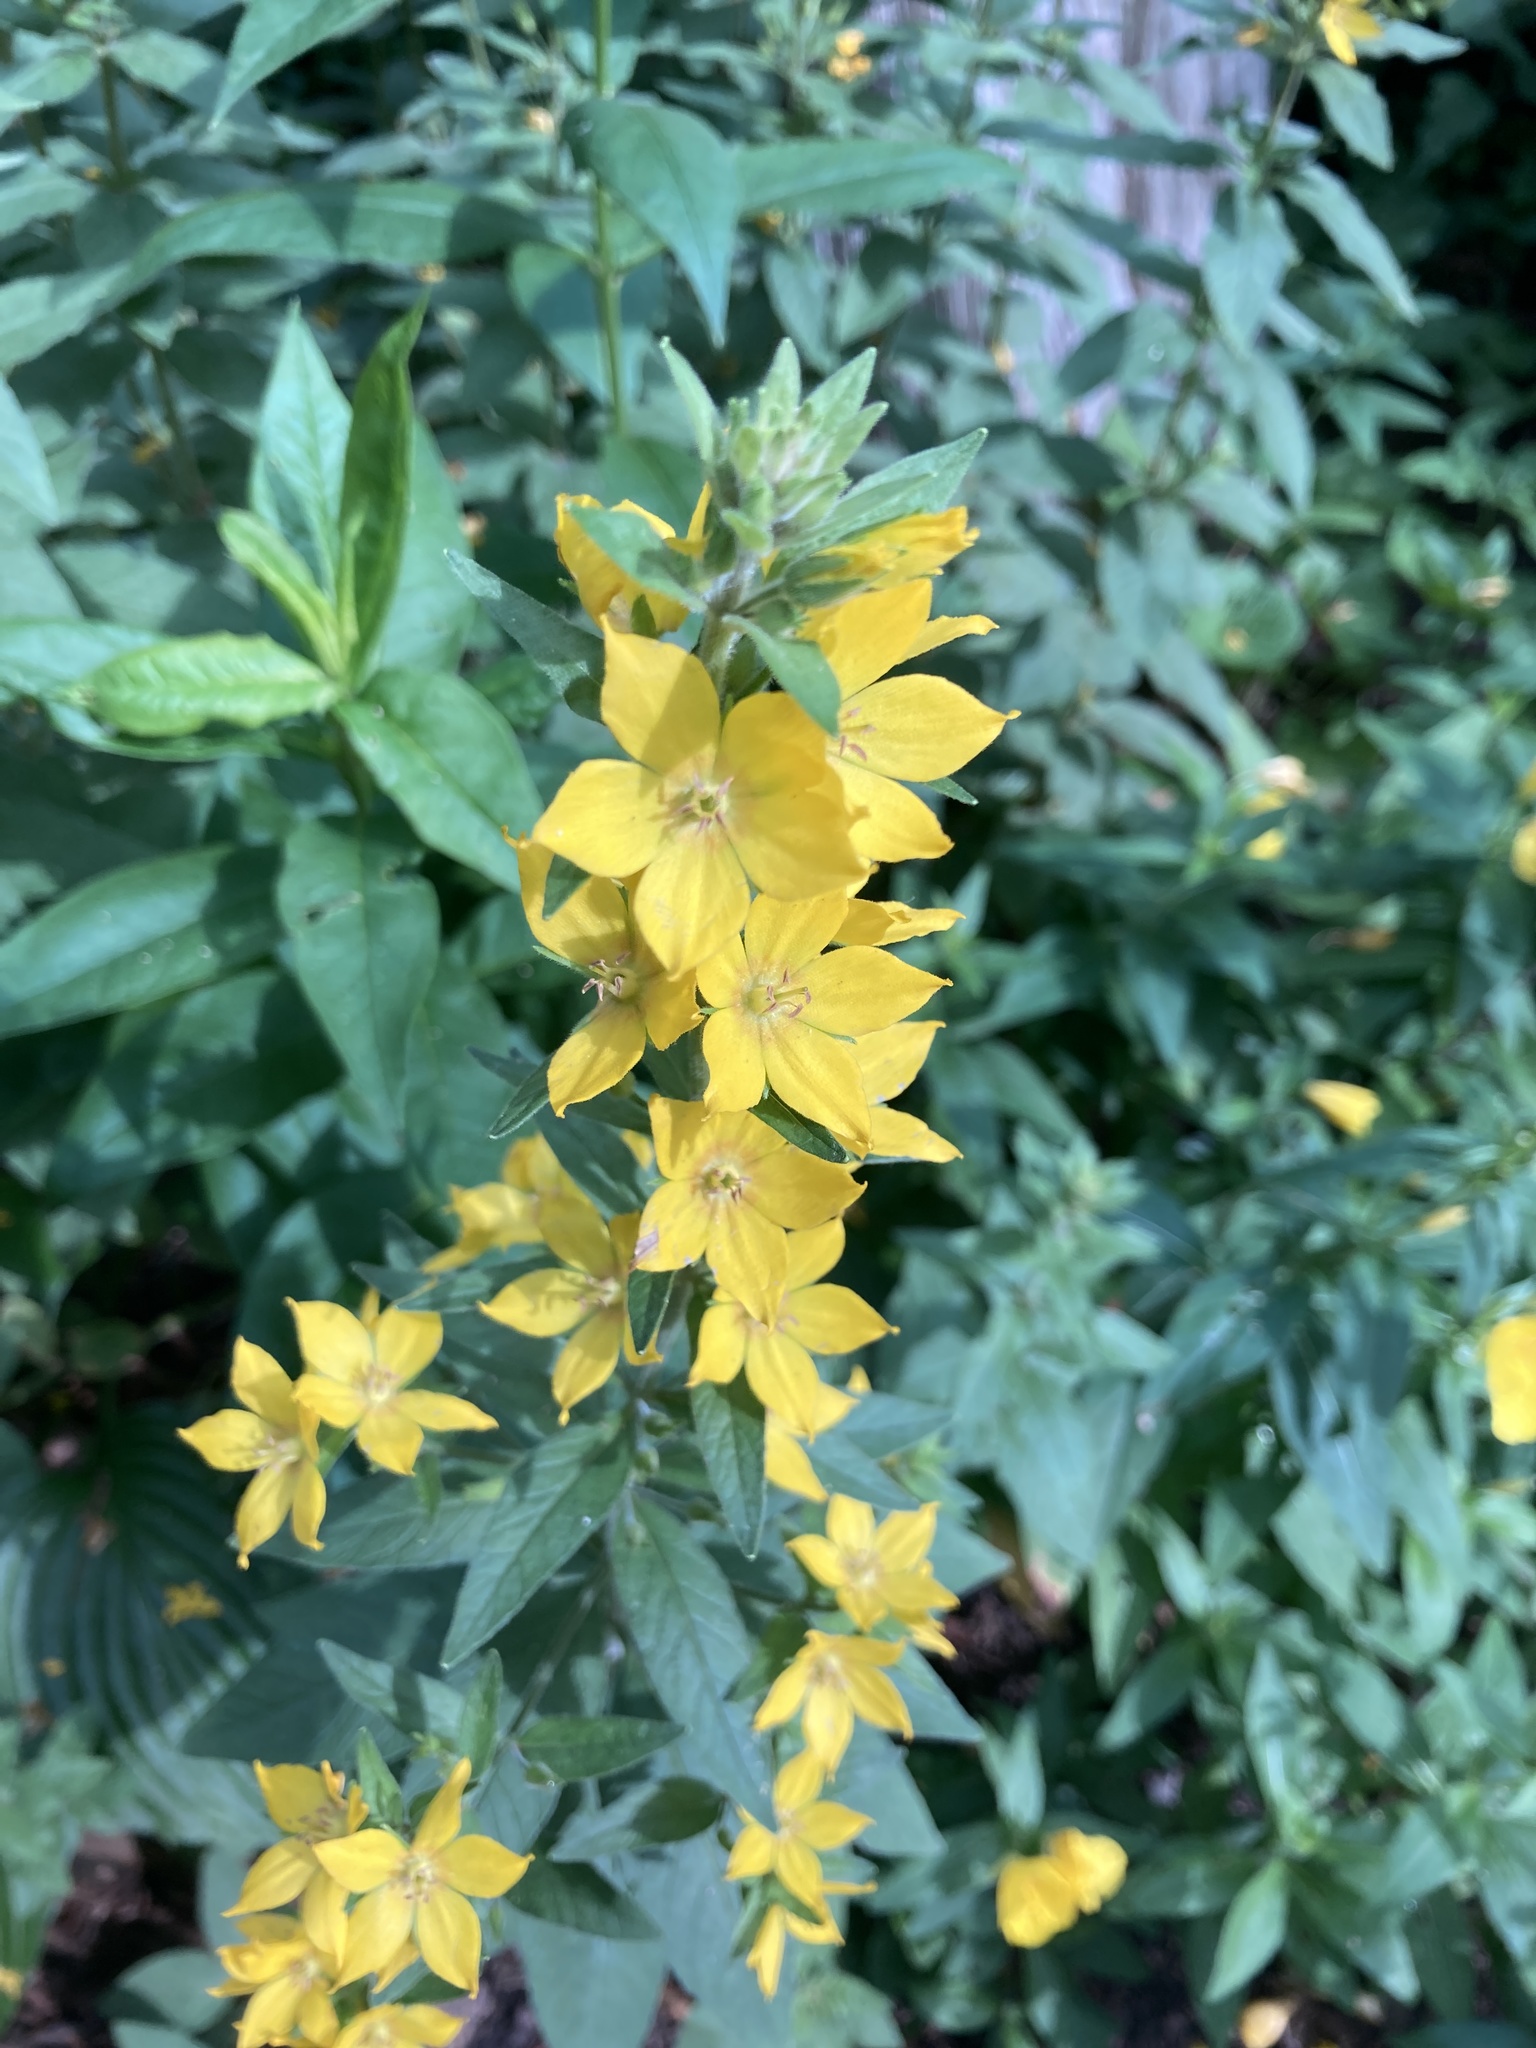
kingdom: Plantae
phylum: Tracheophyta
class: Magnoliopsida
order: Ericales
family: Primulaceae
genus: Lysimachia
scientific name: Lysimachia punctata
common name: Dotted loosestrife
